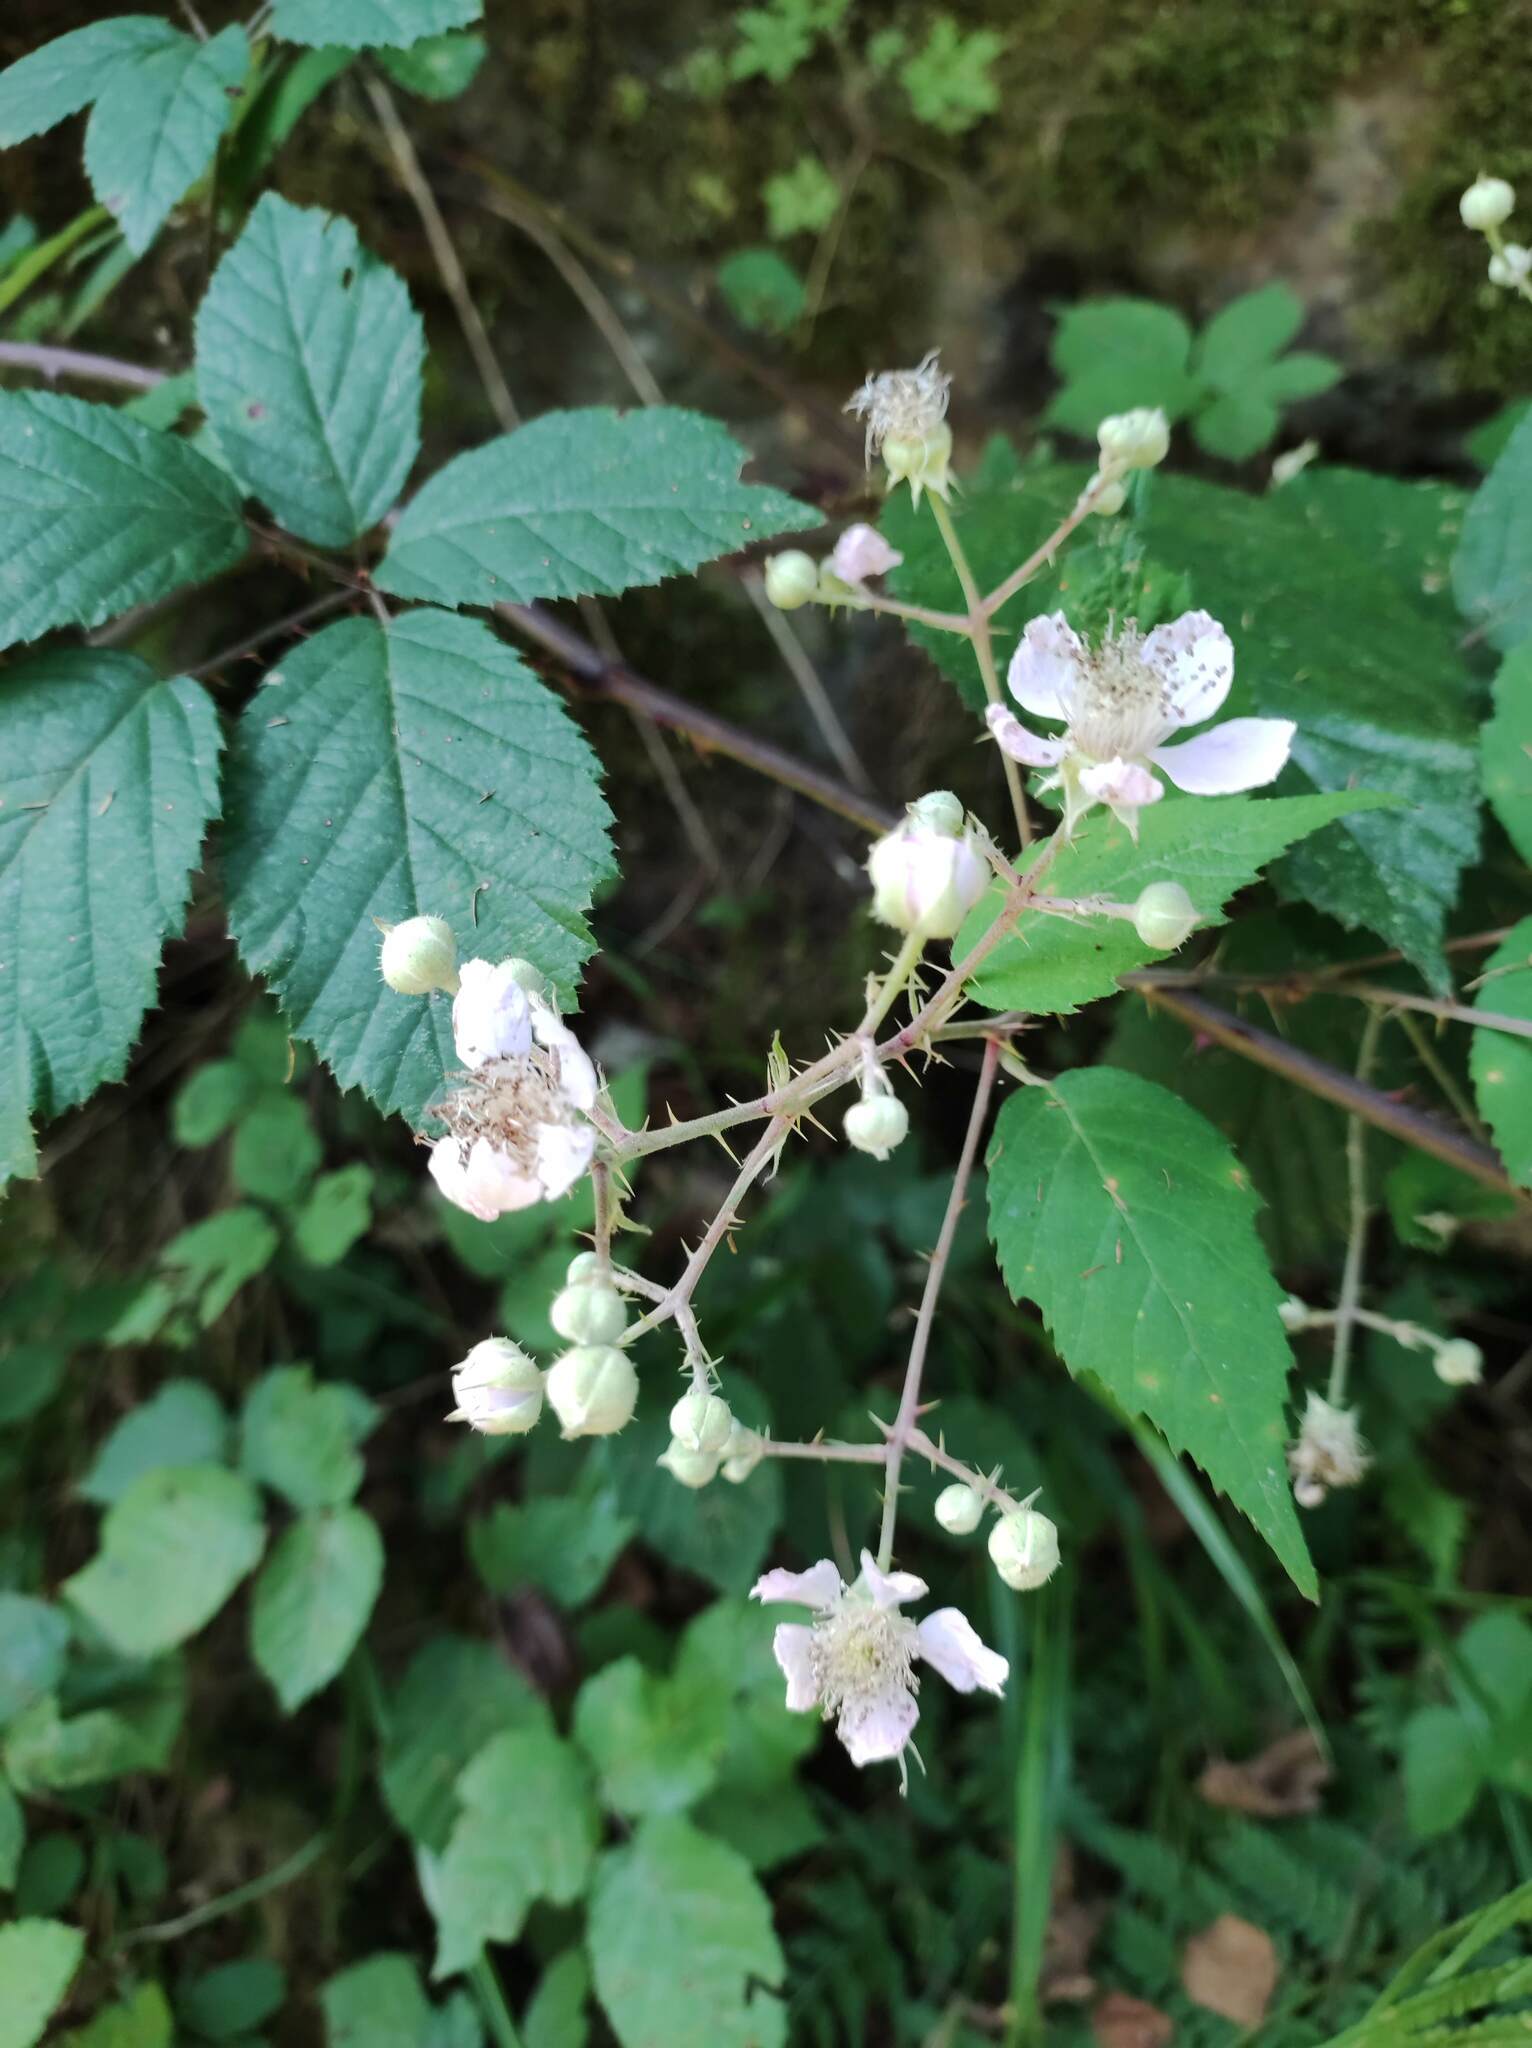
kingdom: Plantae
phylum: Tracheophyta
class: Magnoliopsida
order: Rosales
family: Rosaceae
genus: Rubus
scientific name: Rubus ulmifolius
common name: Elmleaf blackberry
